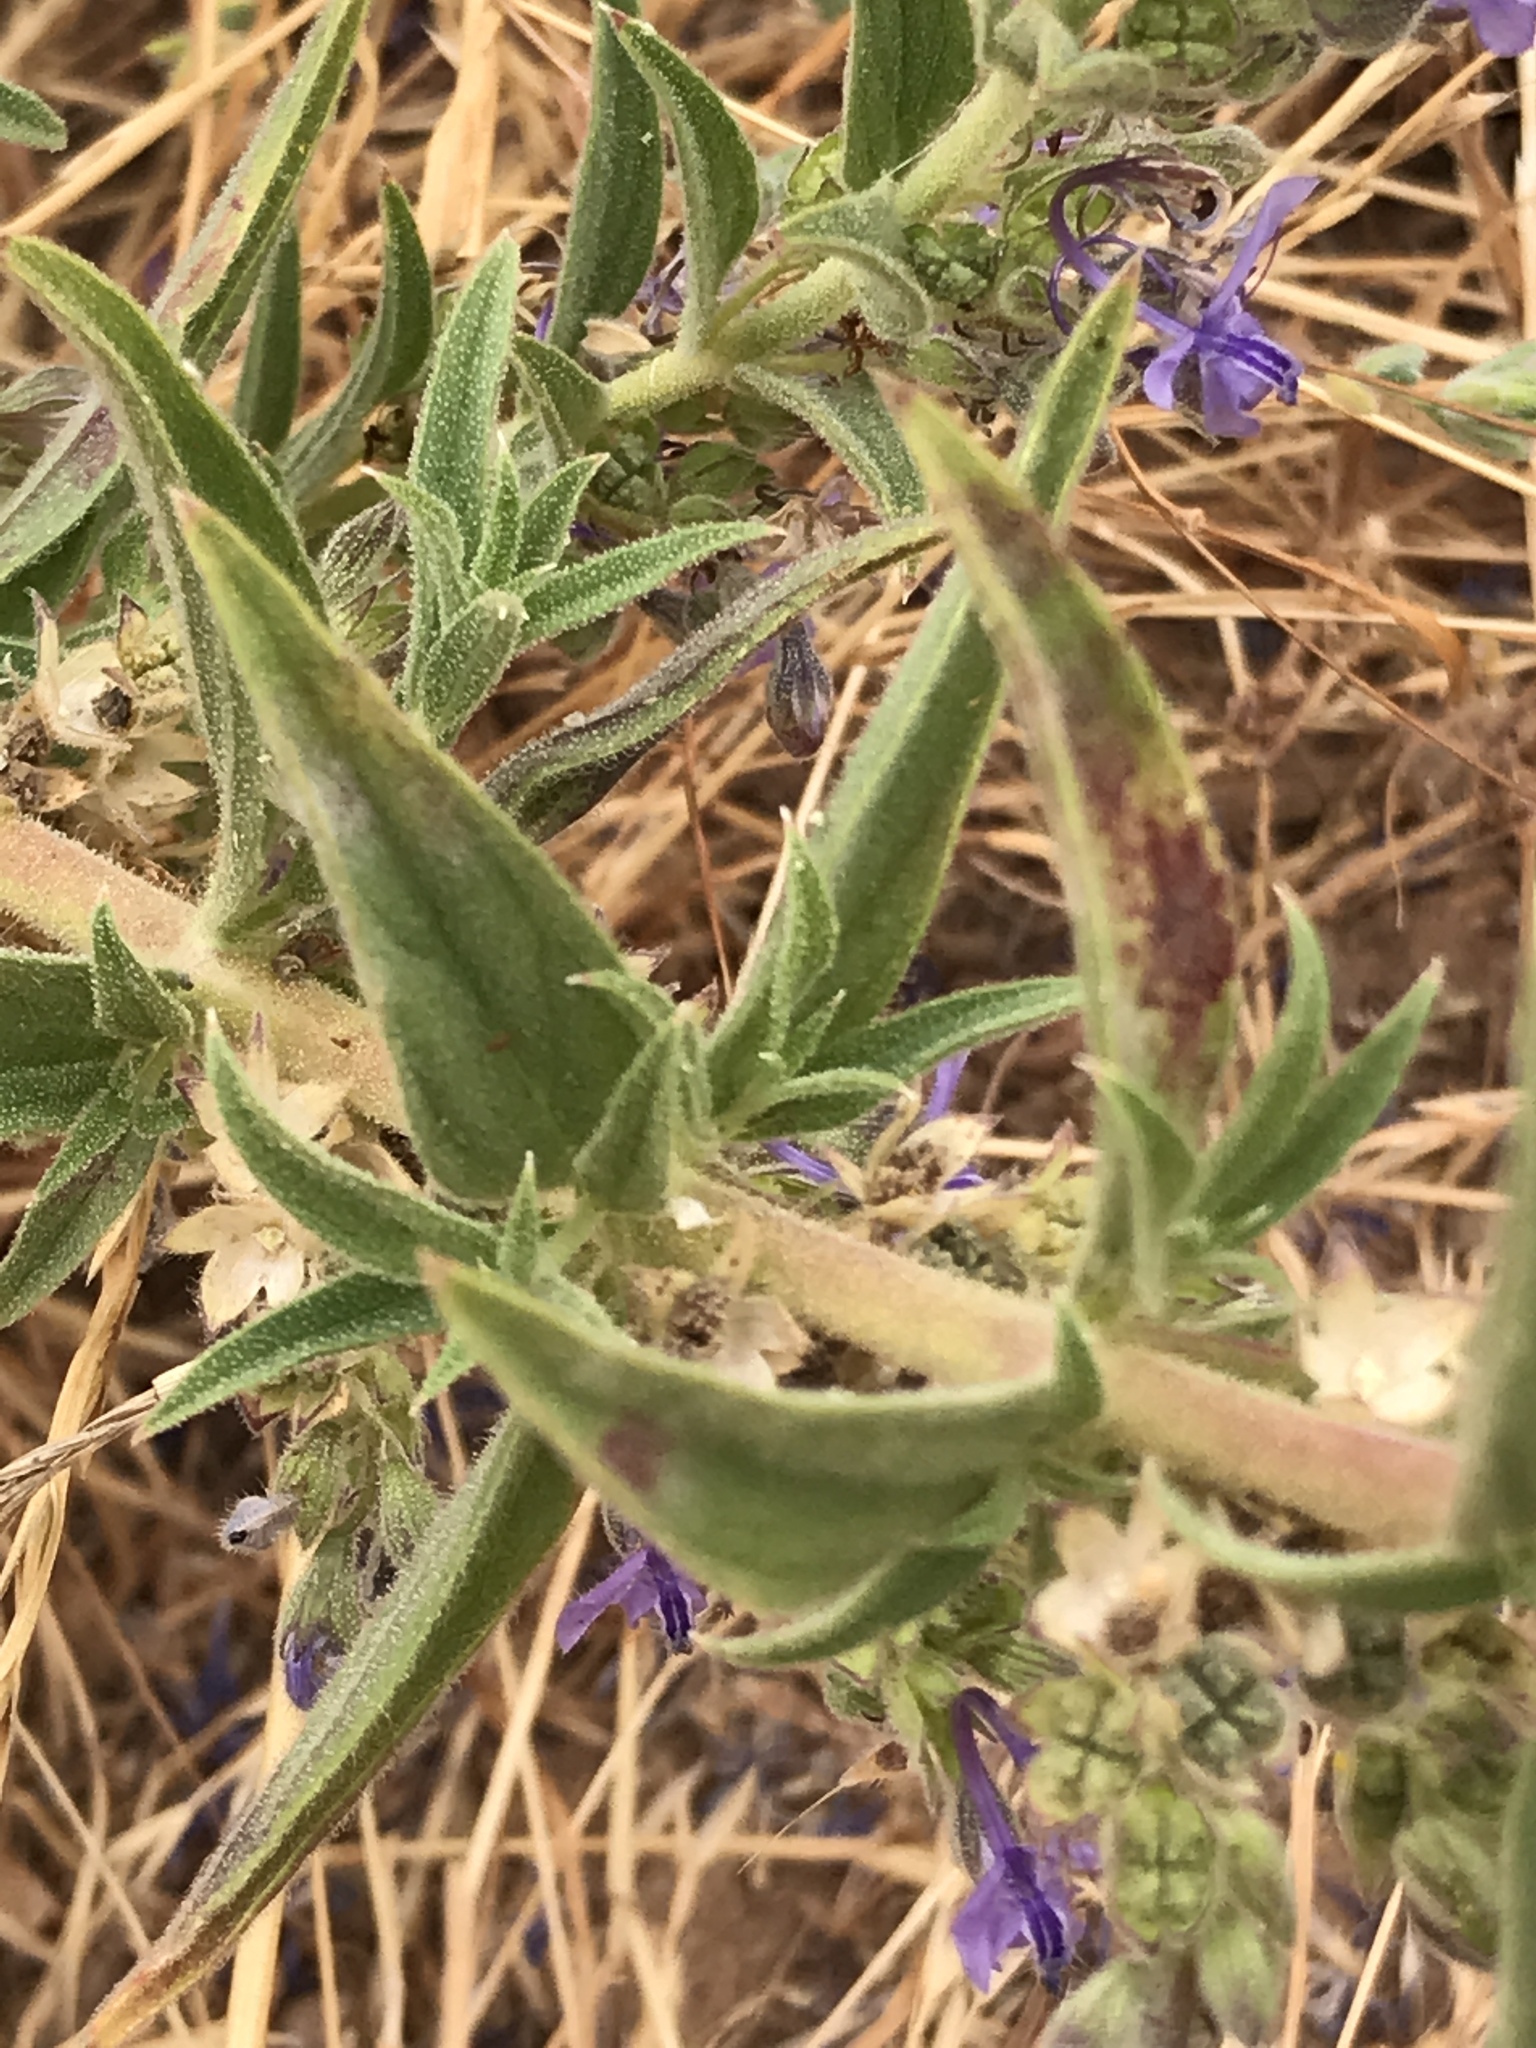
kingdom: Plantae
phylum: Tracheophyta
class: Magnoliopsida
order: Lamiales
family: Lamiaceae
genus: Trichostema
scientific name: Trichostema lanceolatum
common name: Vinegar-weed
